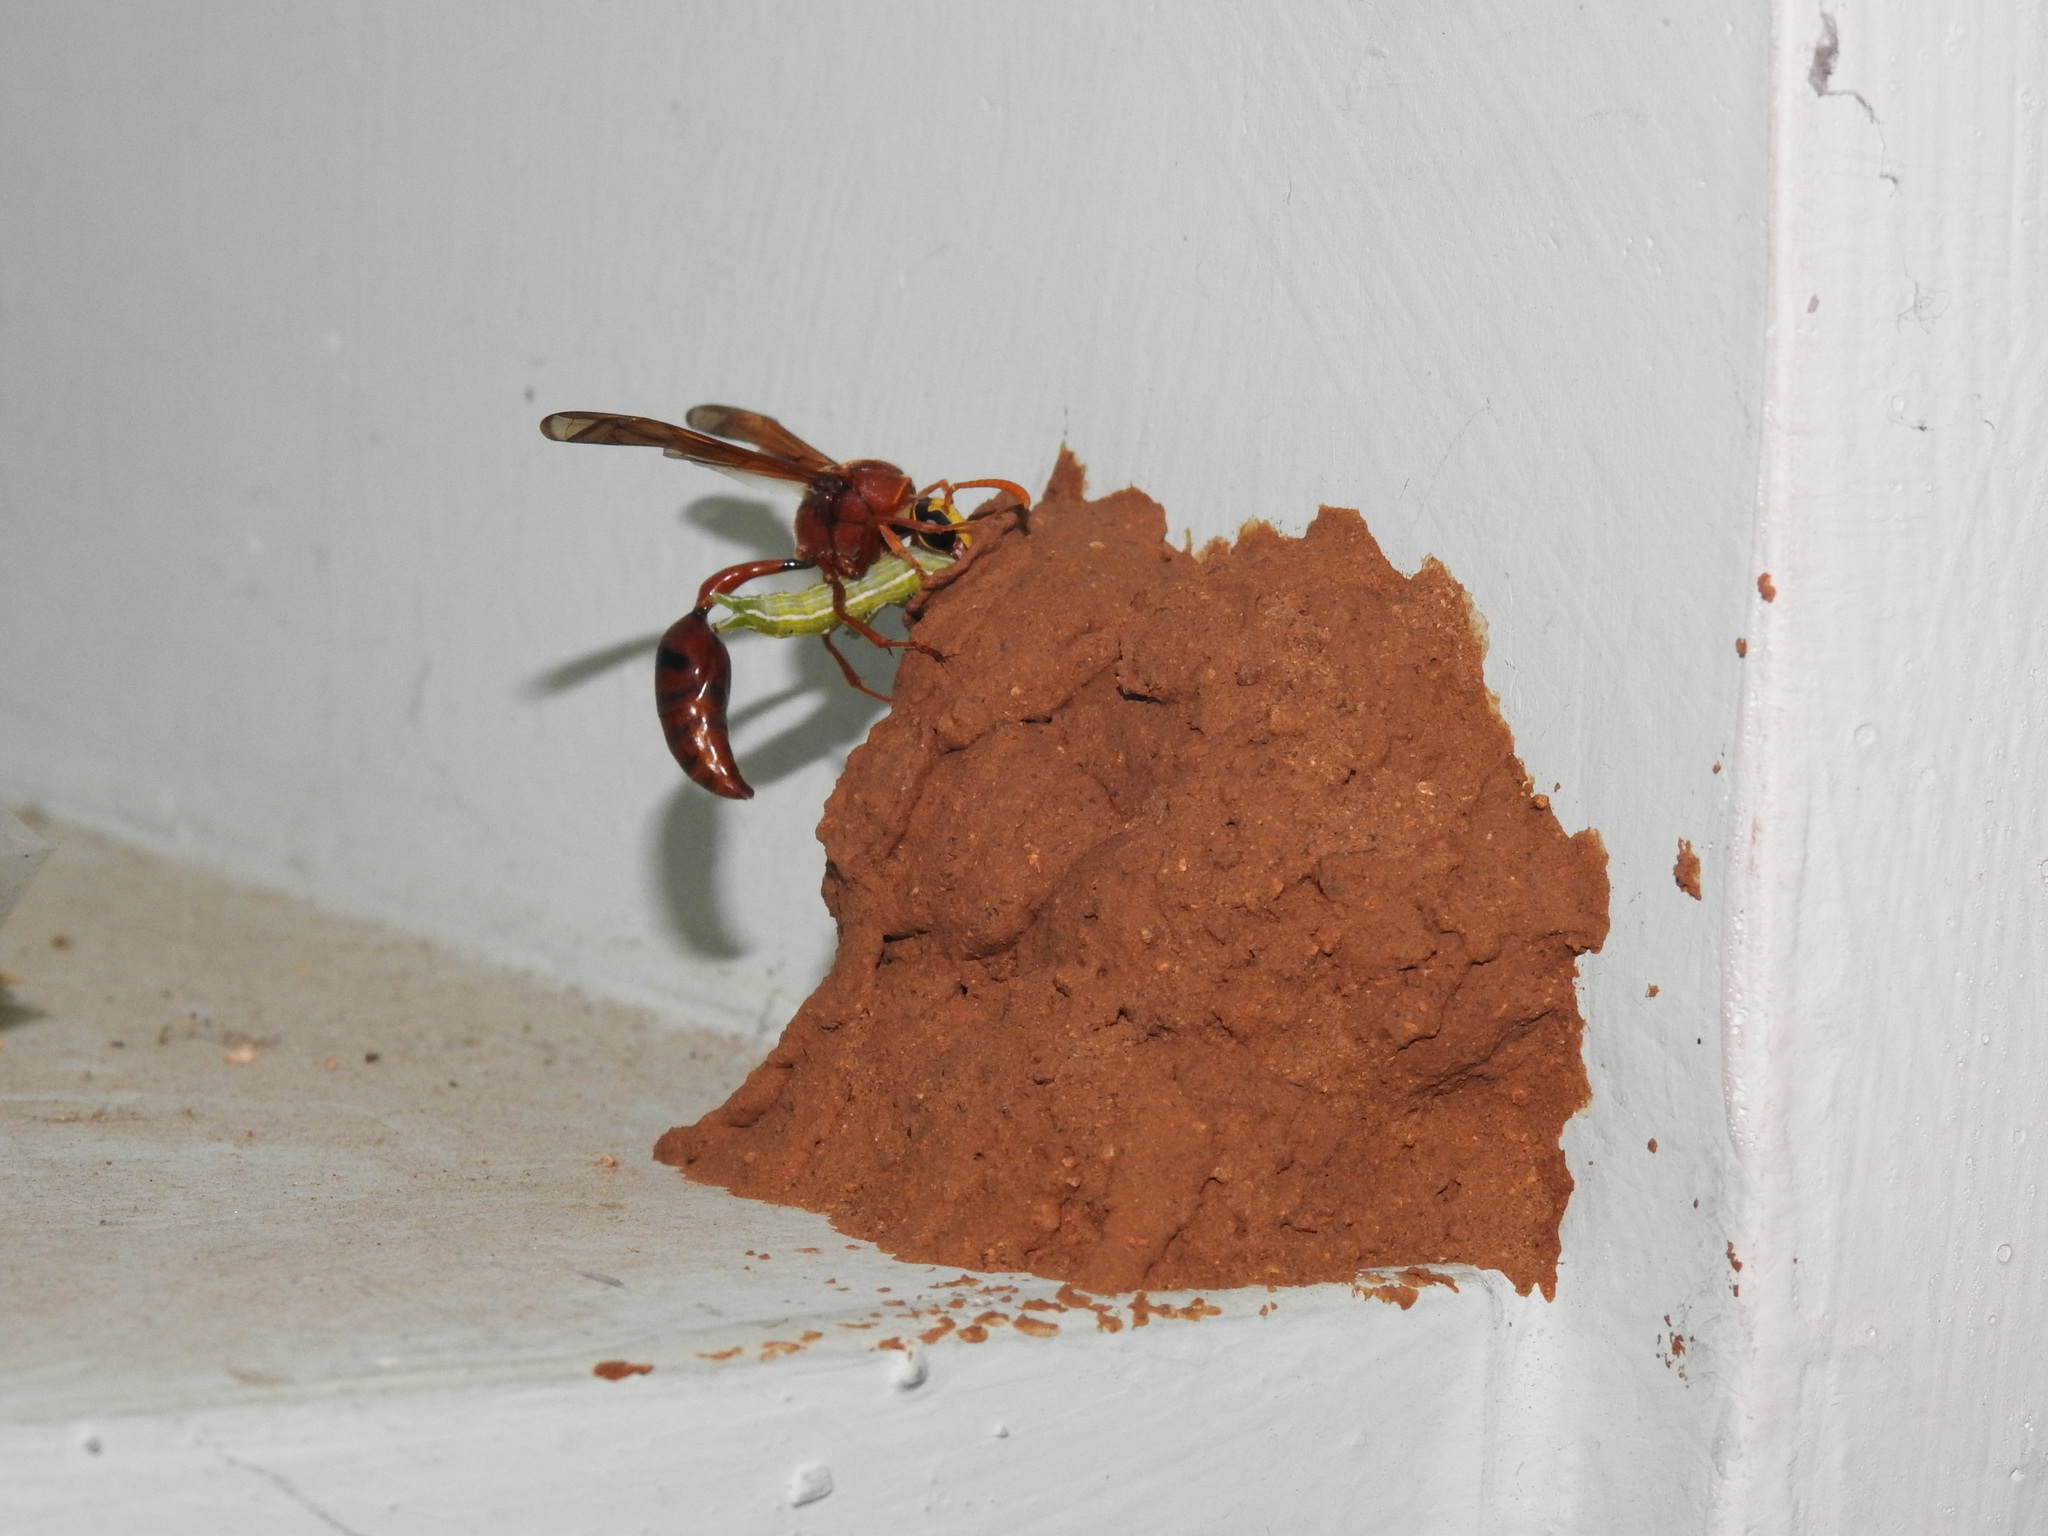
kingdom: Animalia
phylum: Arthropoda
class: Insecta
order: Hymenoptera
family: Eumenidae
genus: Delta
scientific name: Delta conoideum
